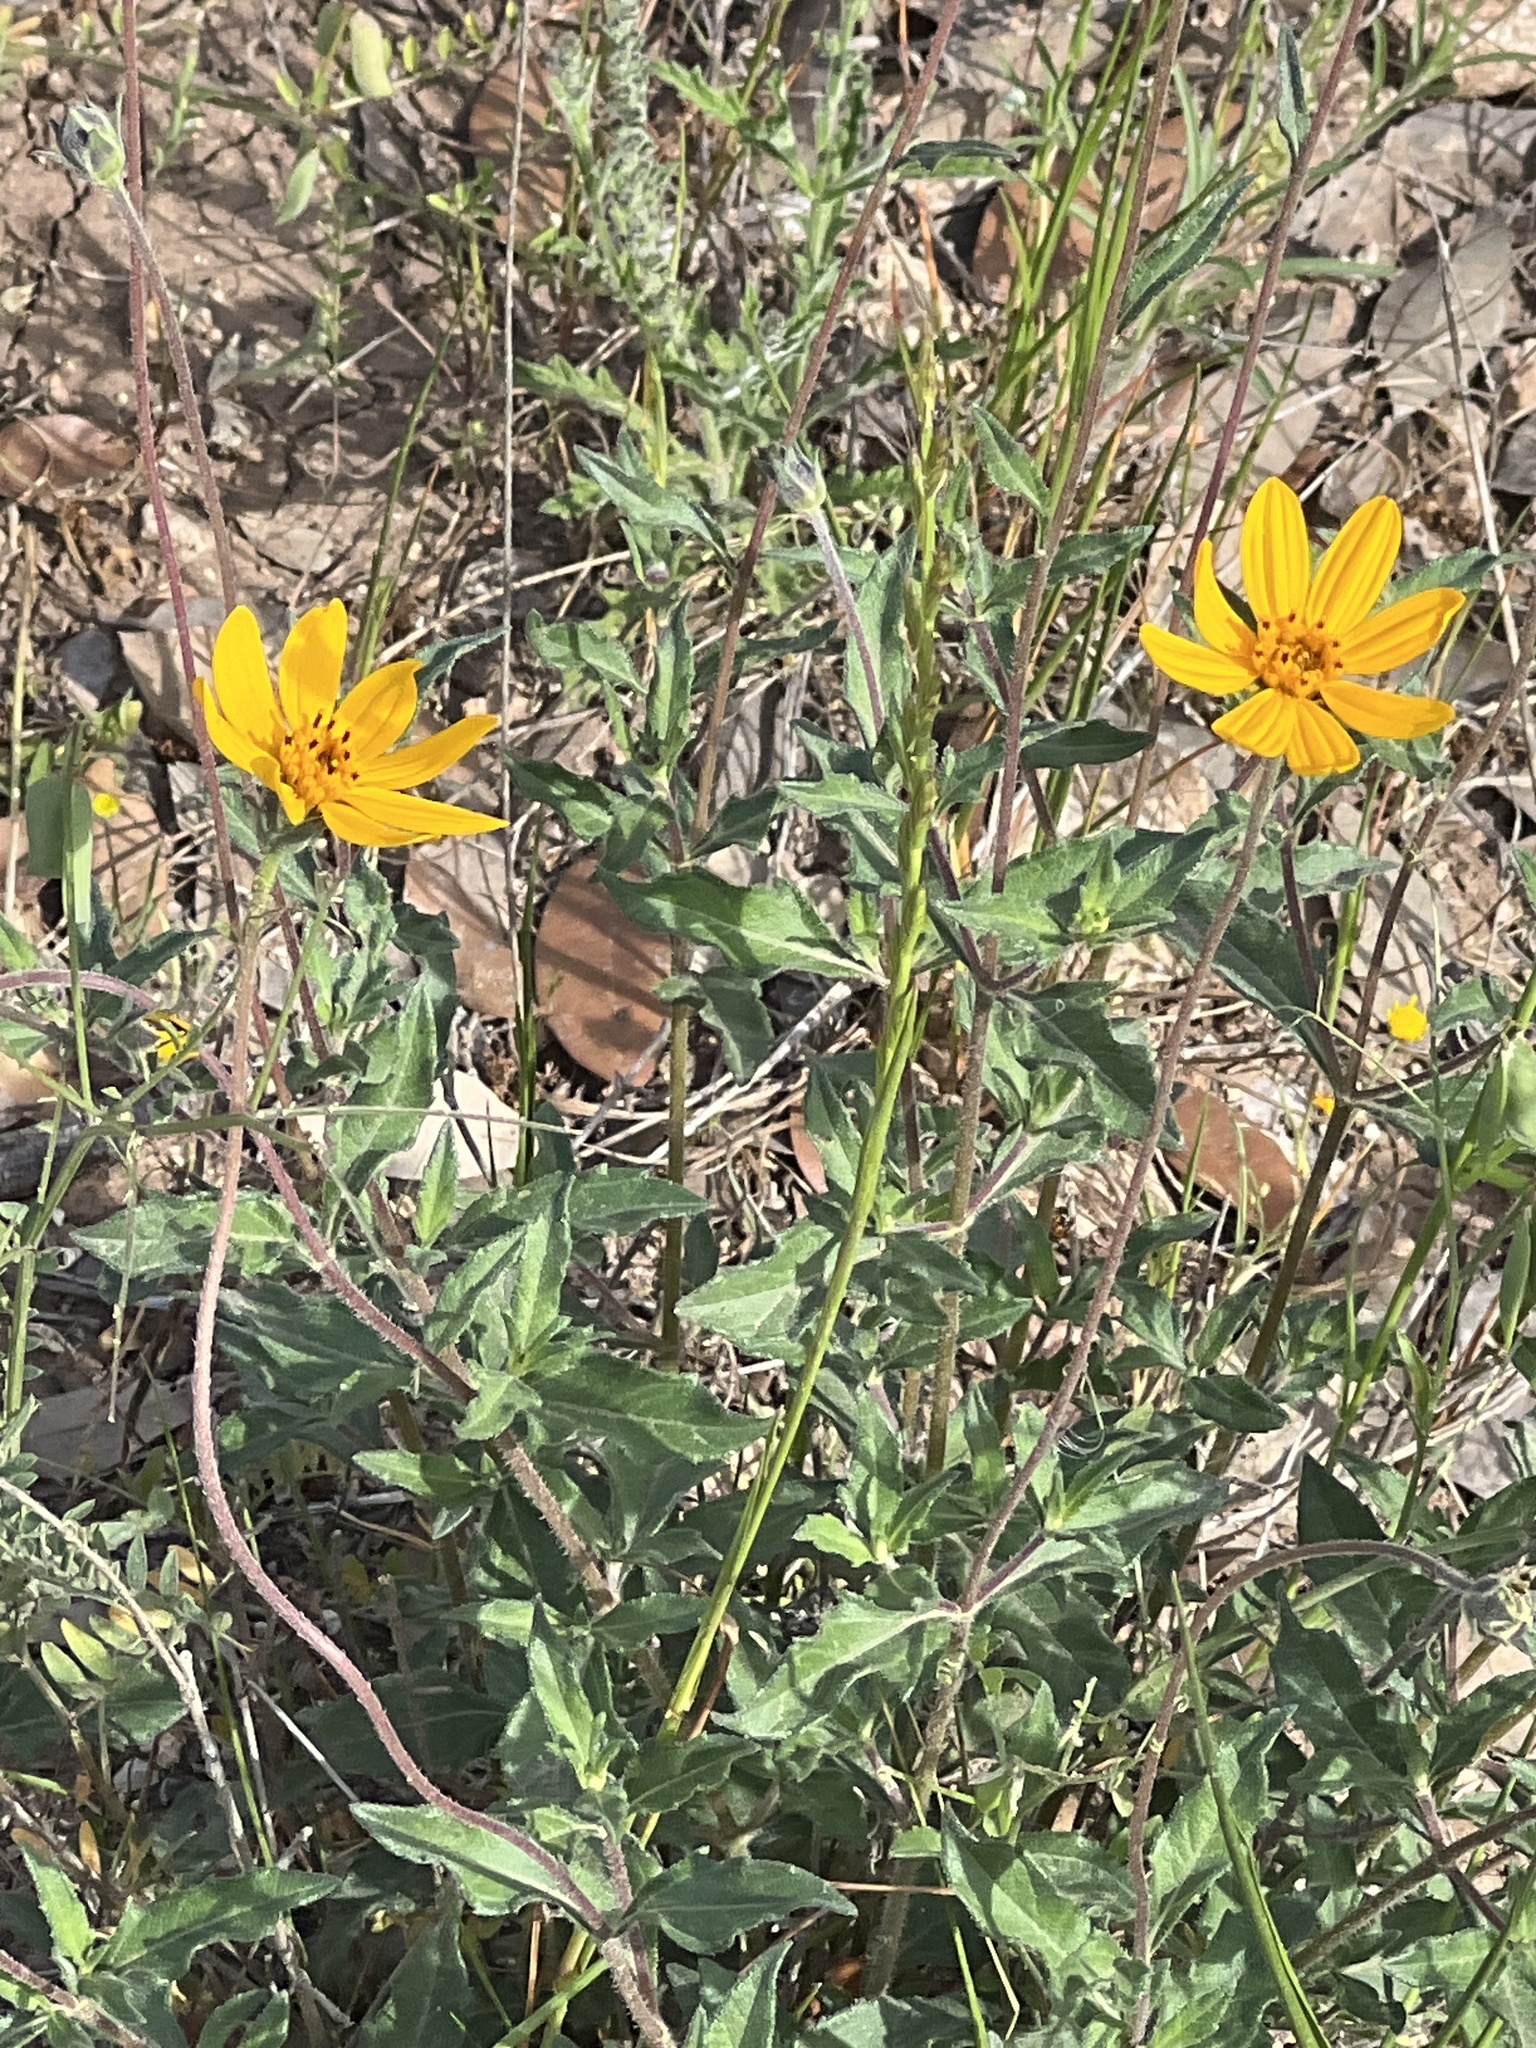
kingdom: Plantae
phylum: Tracheophyta
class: Magnoliopsida
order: Asterales
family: Asteraceae
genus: Wedelia
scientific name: Wedelia acapulcensis
